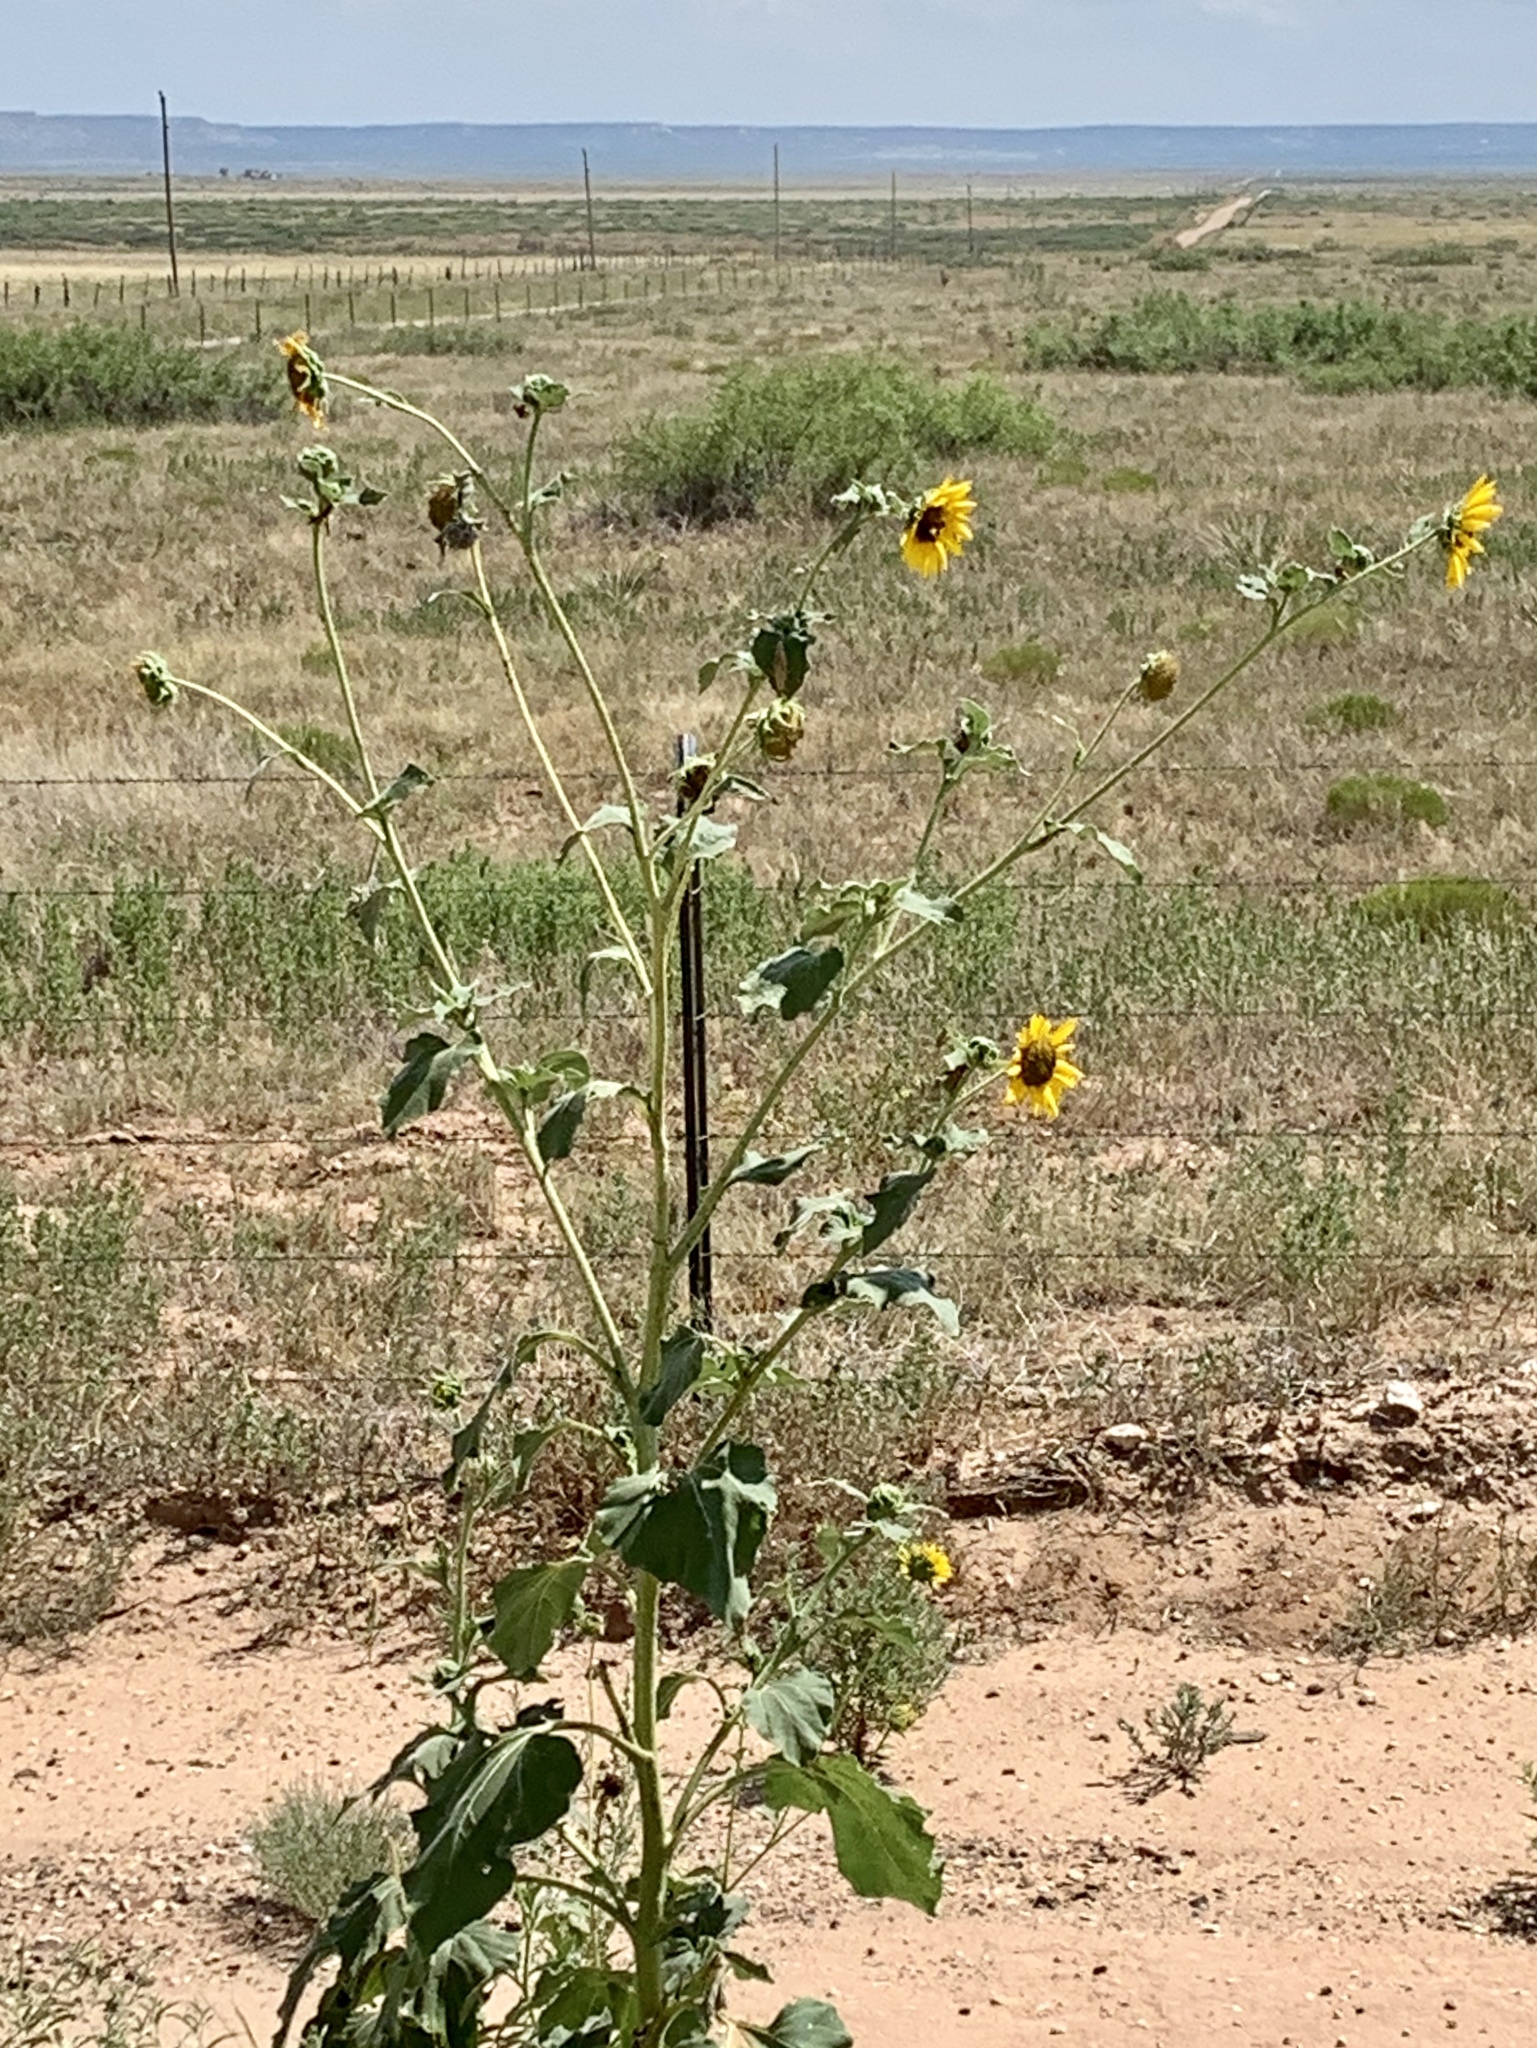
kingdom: Plantae
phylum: Tracheophyta
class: Magnoliopsida
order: Asterales
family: Asteraceae
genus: Helianthus
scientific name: Helianthus annuus
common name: Sunflower
